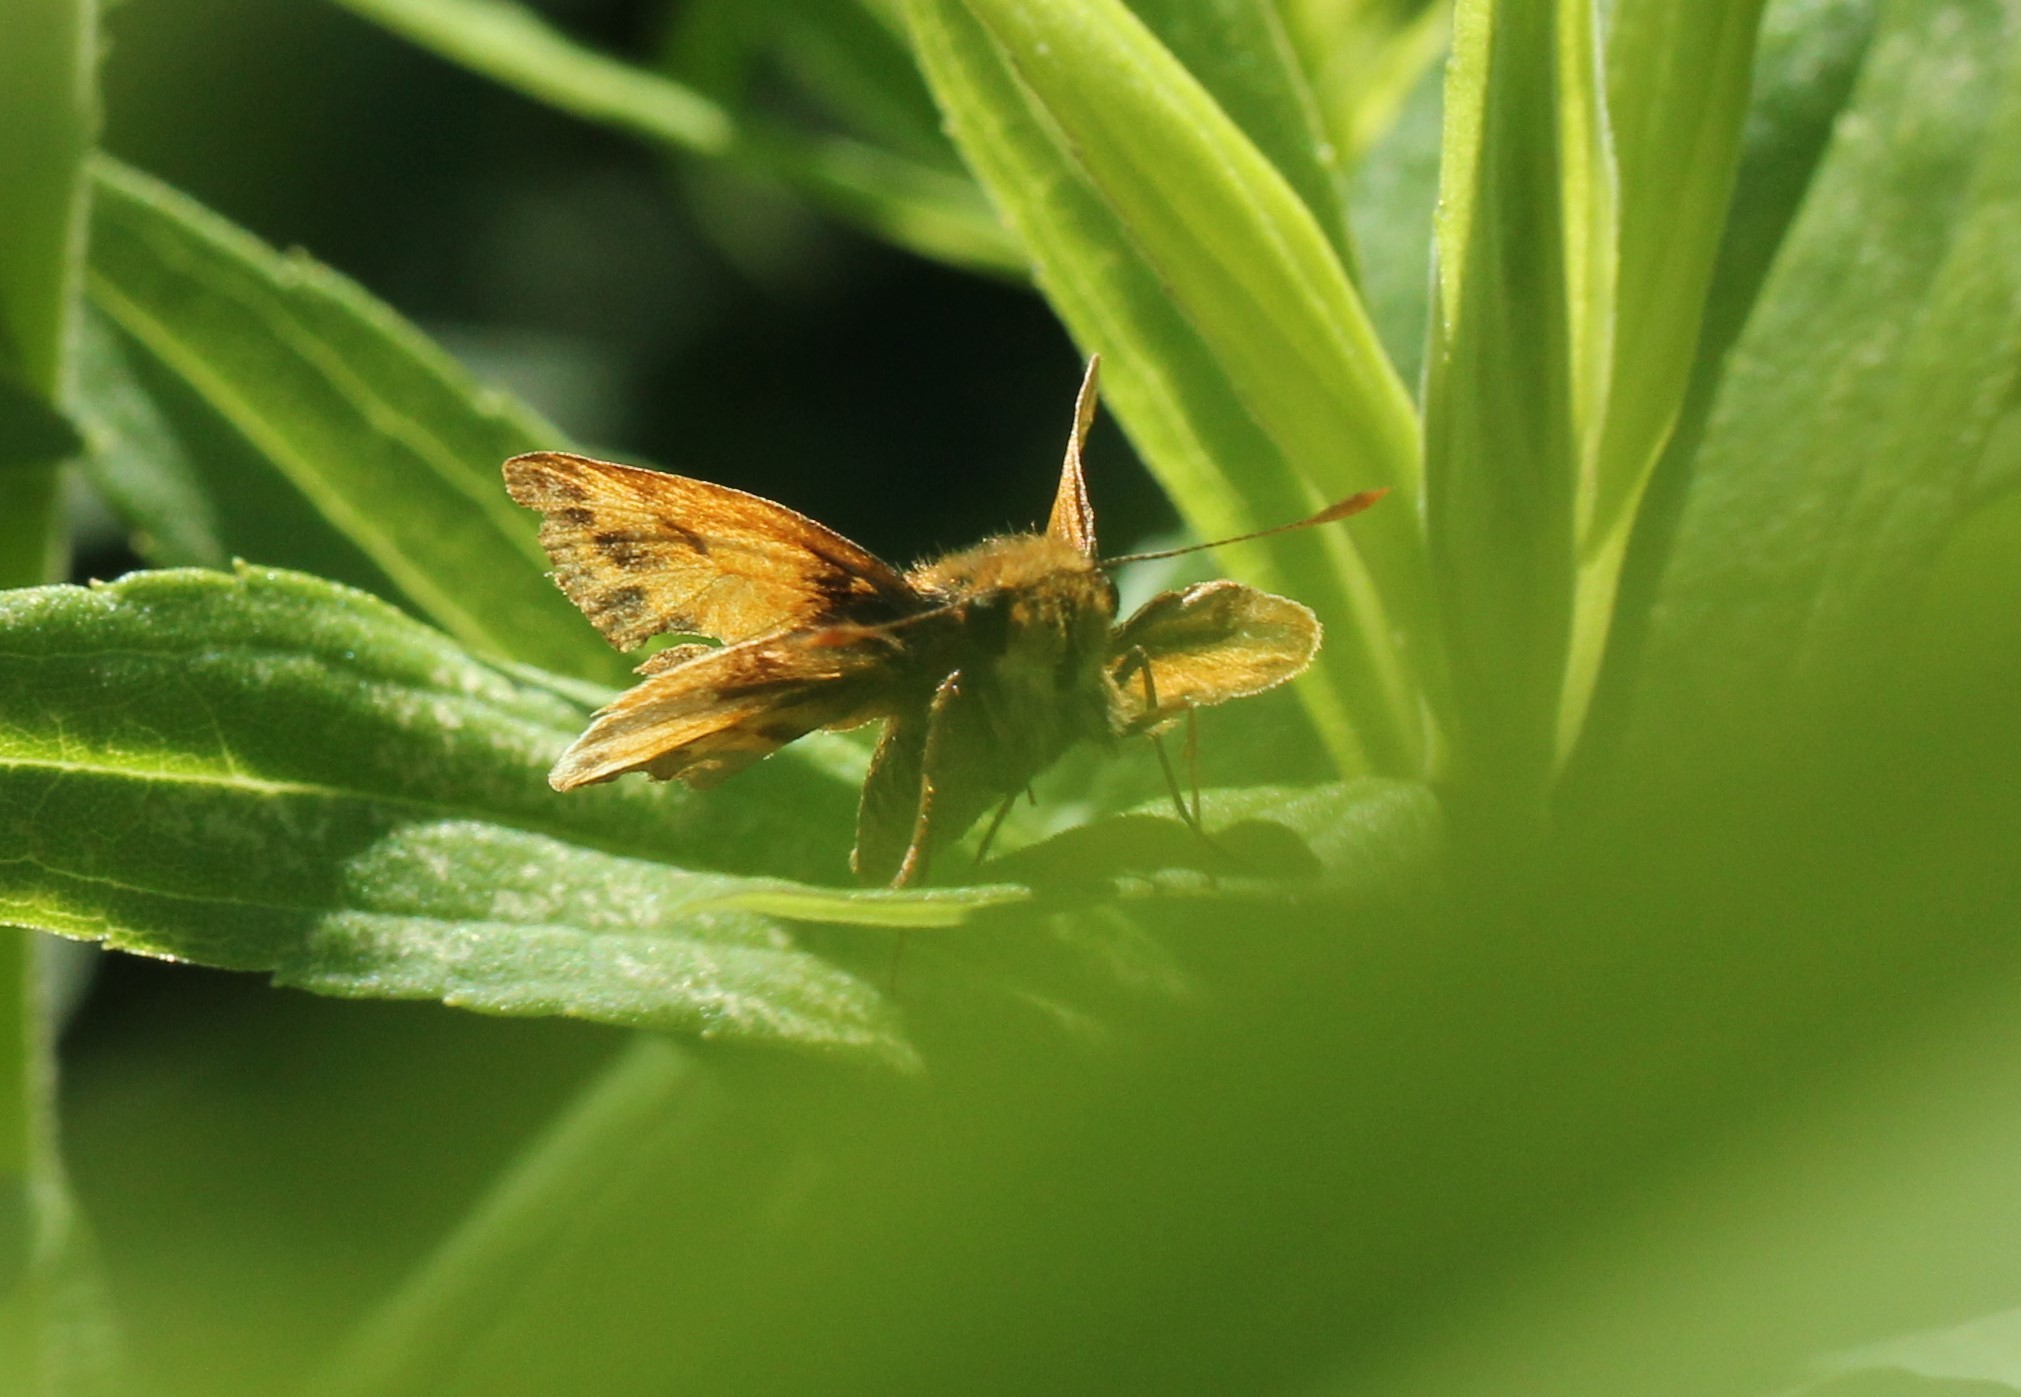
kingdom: Animalia
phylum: Arthropoda
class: Insecta
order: Lepidoptera
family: Hesperiidae
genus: Lon
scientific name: Lon zabulon
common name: Zabulon skipper
